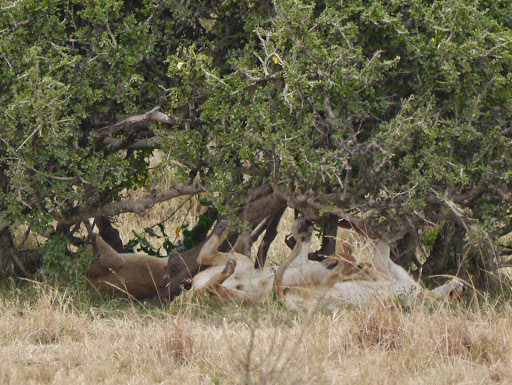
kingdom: Animalia
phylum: Chordata
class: Mammalia
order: Carnivora
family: Felidae
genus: Panthera
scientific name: Panthera leo
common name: Lion
